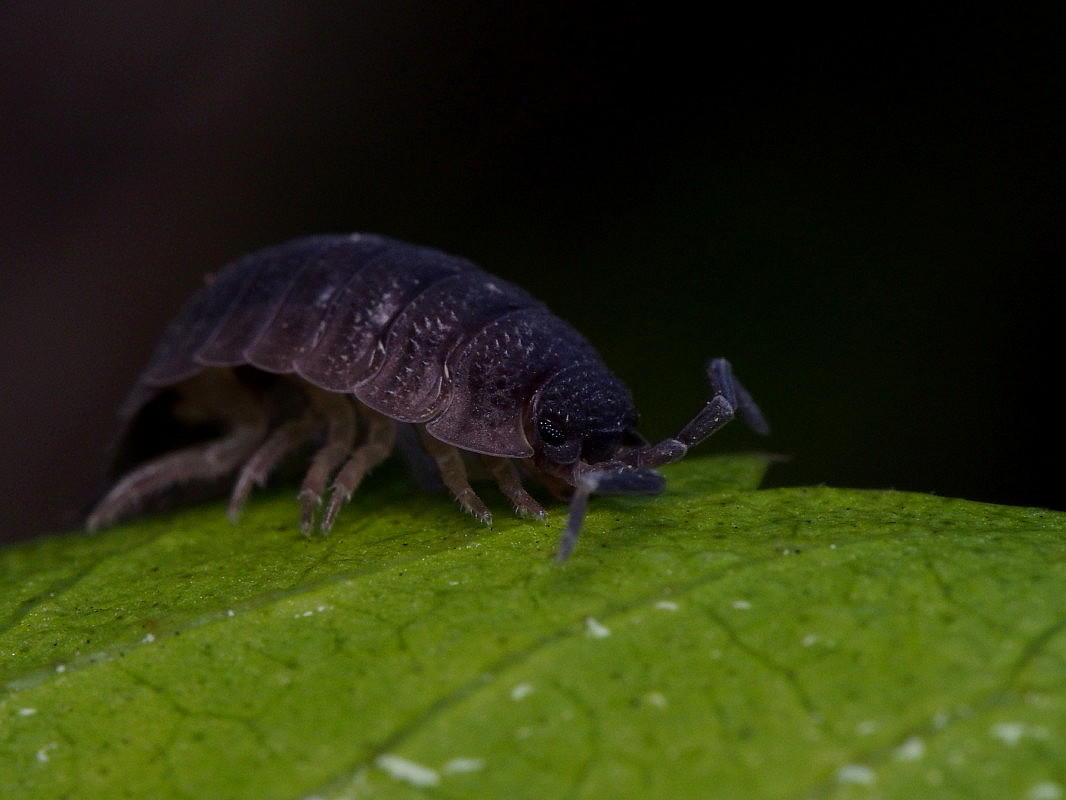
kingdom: Animalia
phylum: Arthropoda
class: Malacostraca
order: Isopoda
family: Porcellionidae
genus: Porcellio
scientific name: Porcellio scaber
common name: Common rough woodlouse
